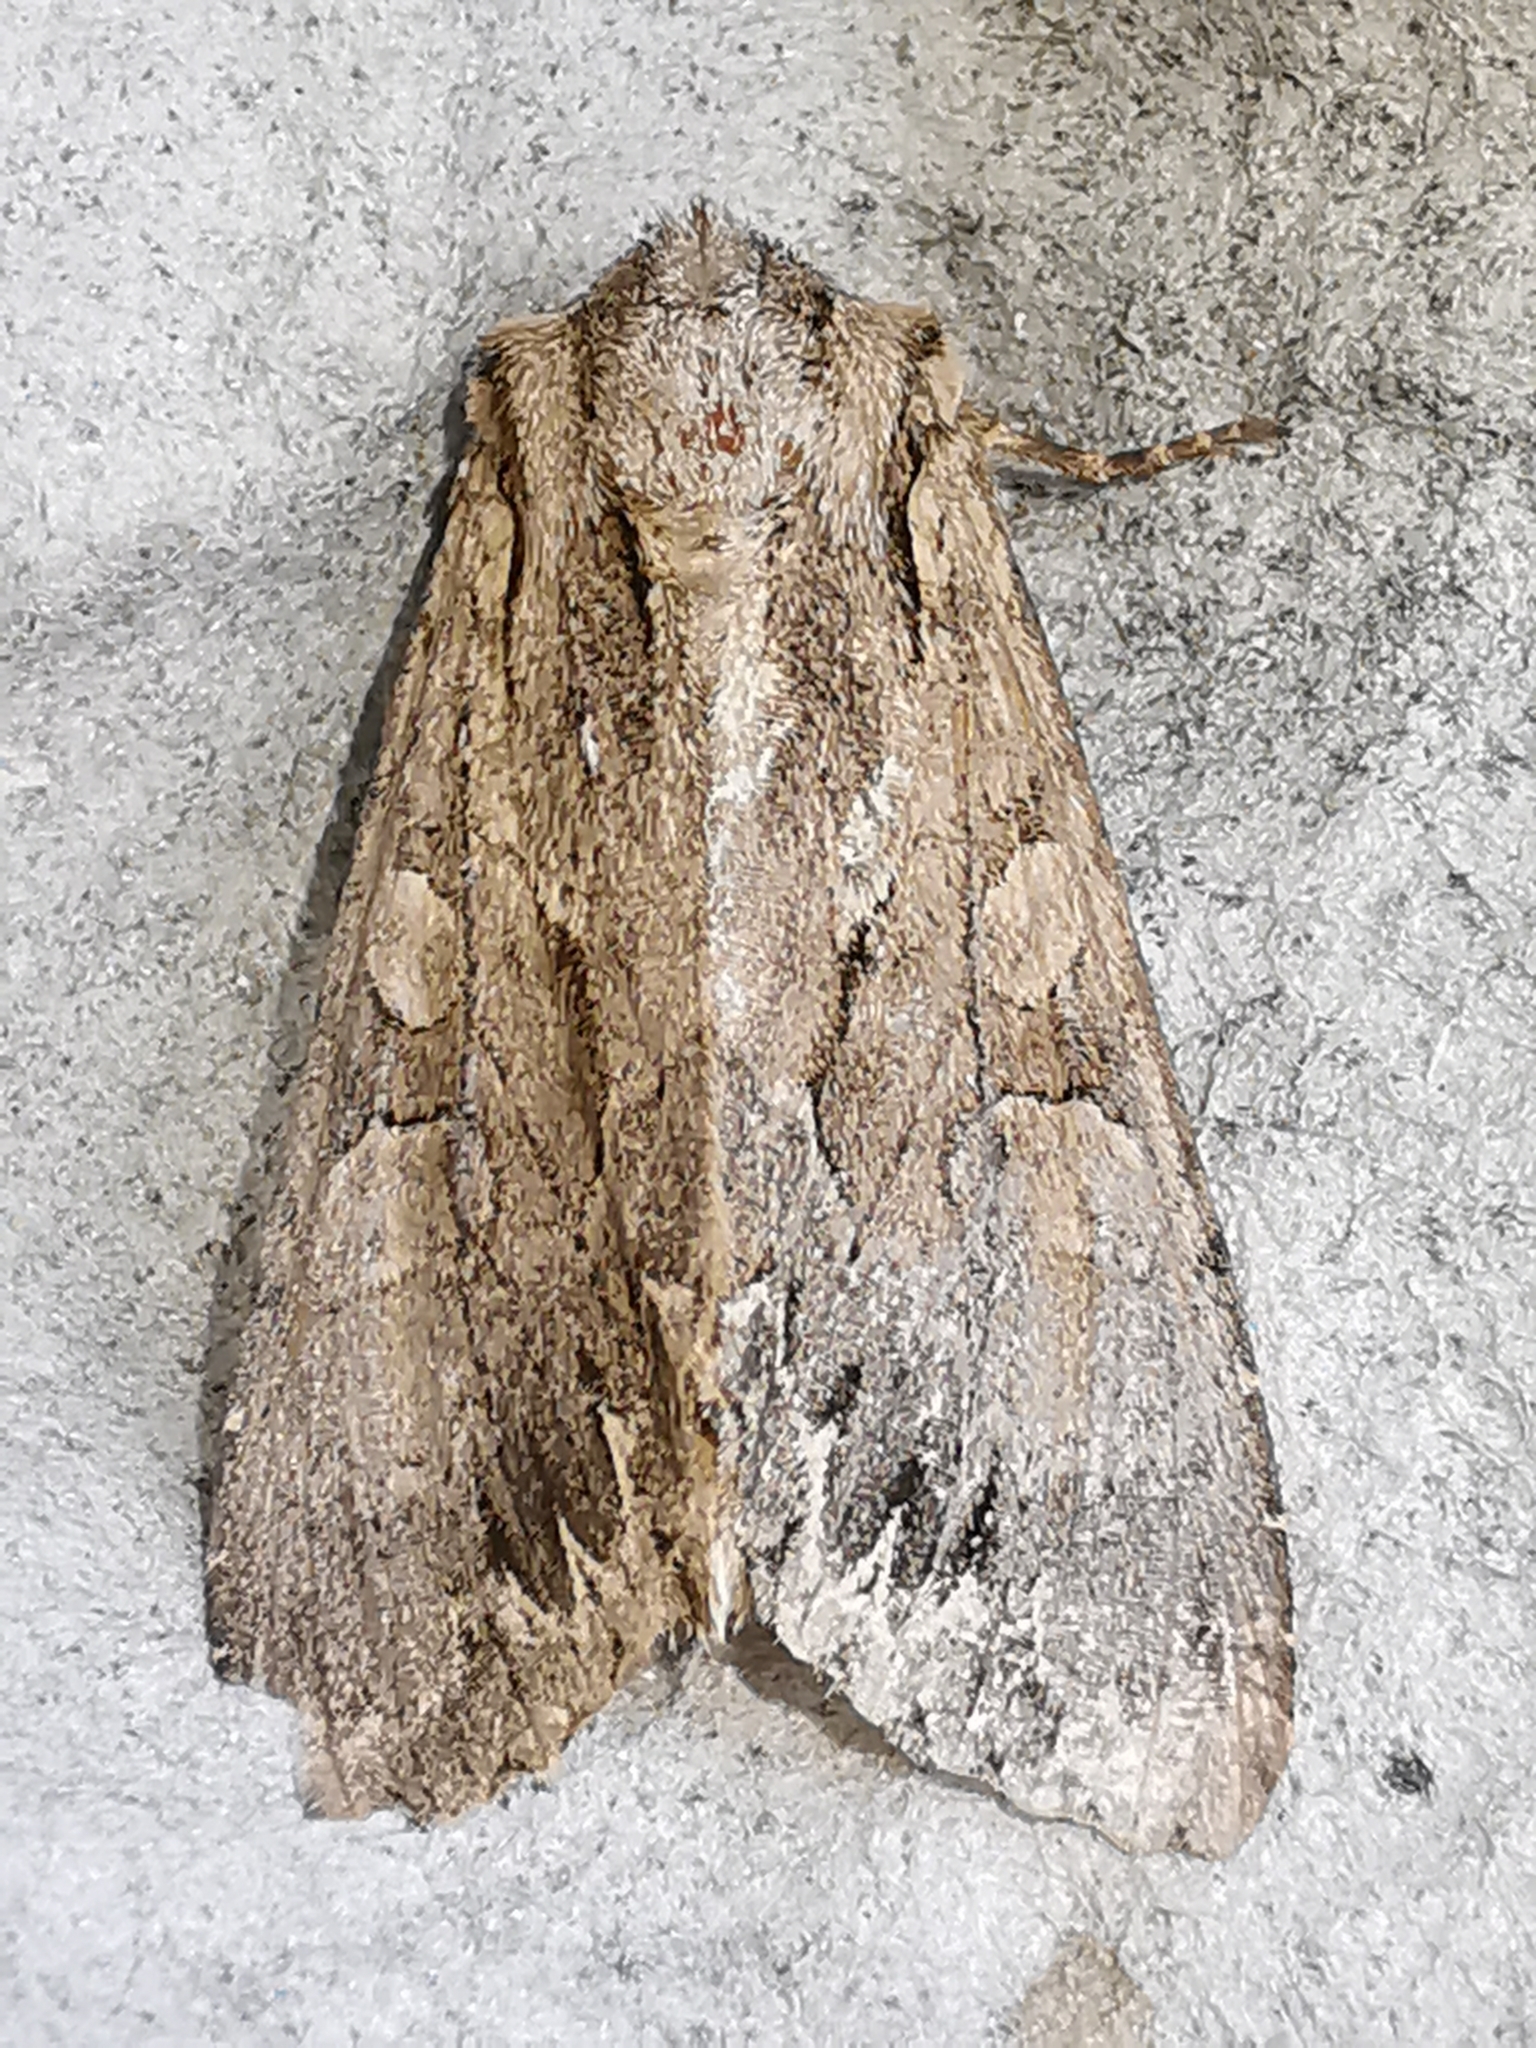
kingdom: Animalia
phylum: Arthropoda
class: Insecta
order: Lepidoptera
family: Noctuidae
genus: Apamea
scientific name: Apamea monoglypha
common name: Dark arches
